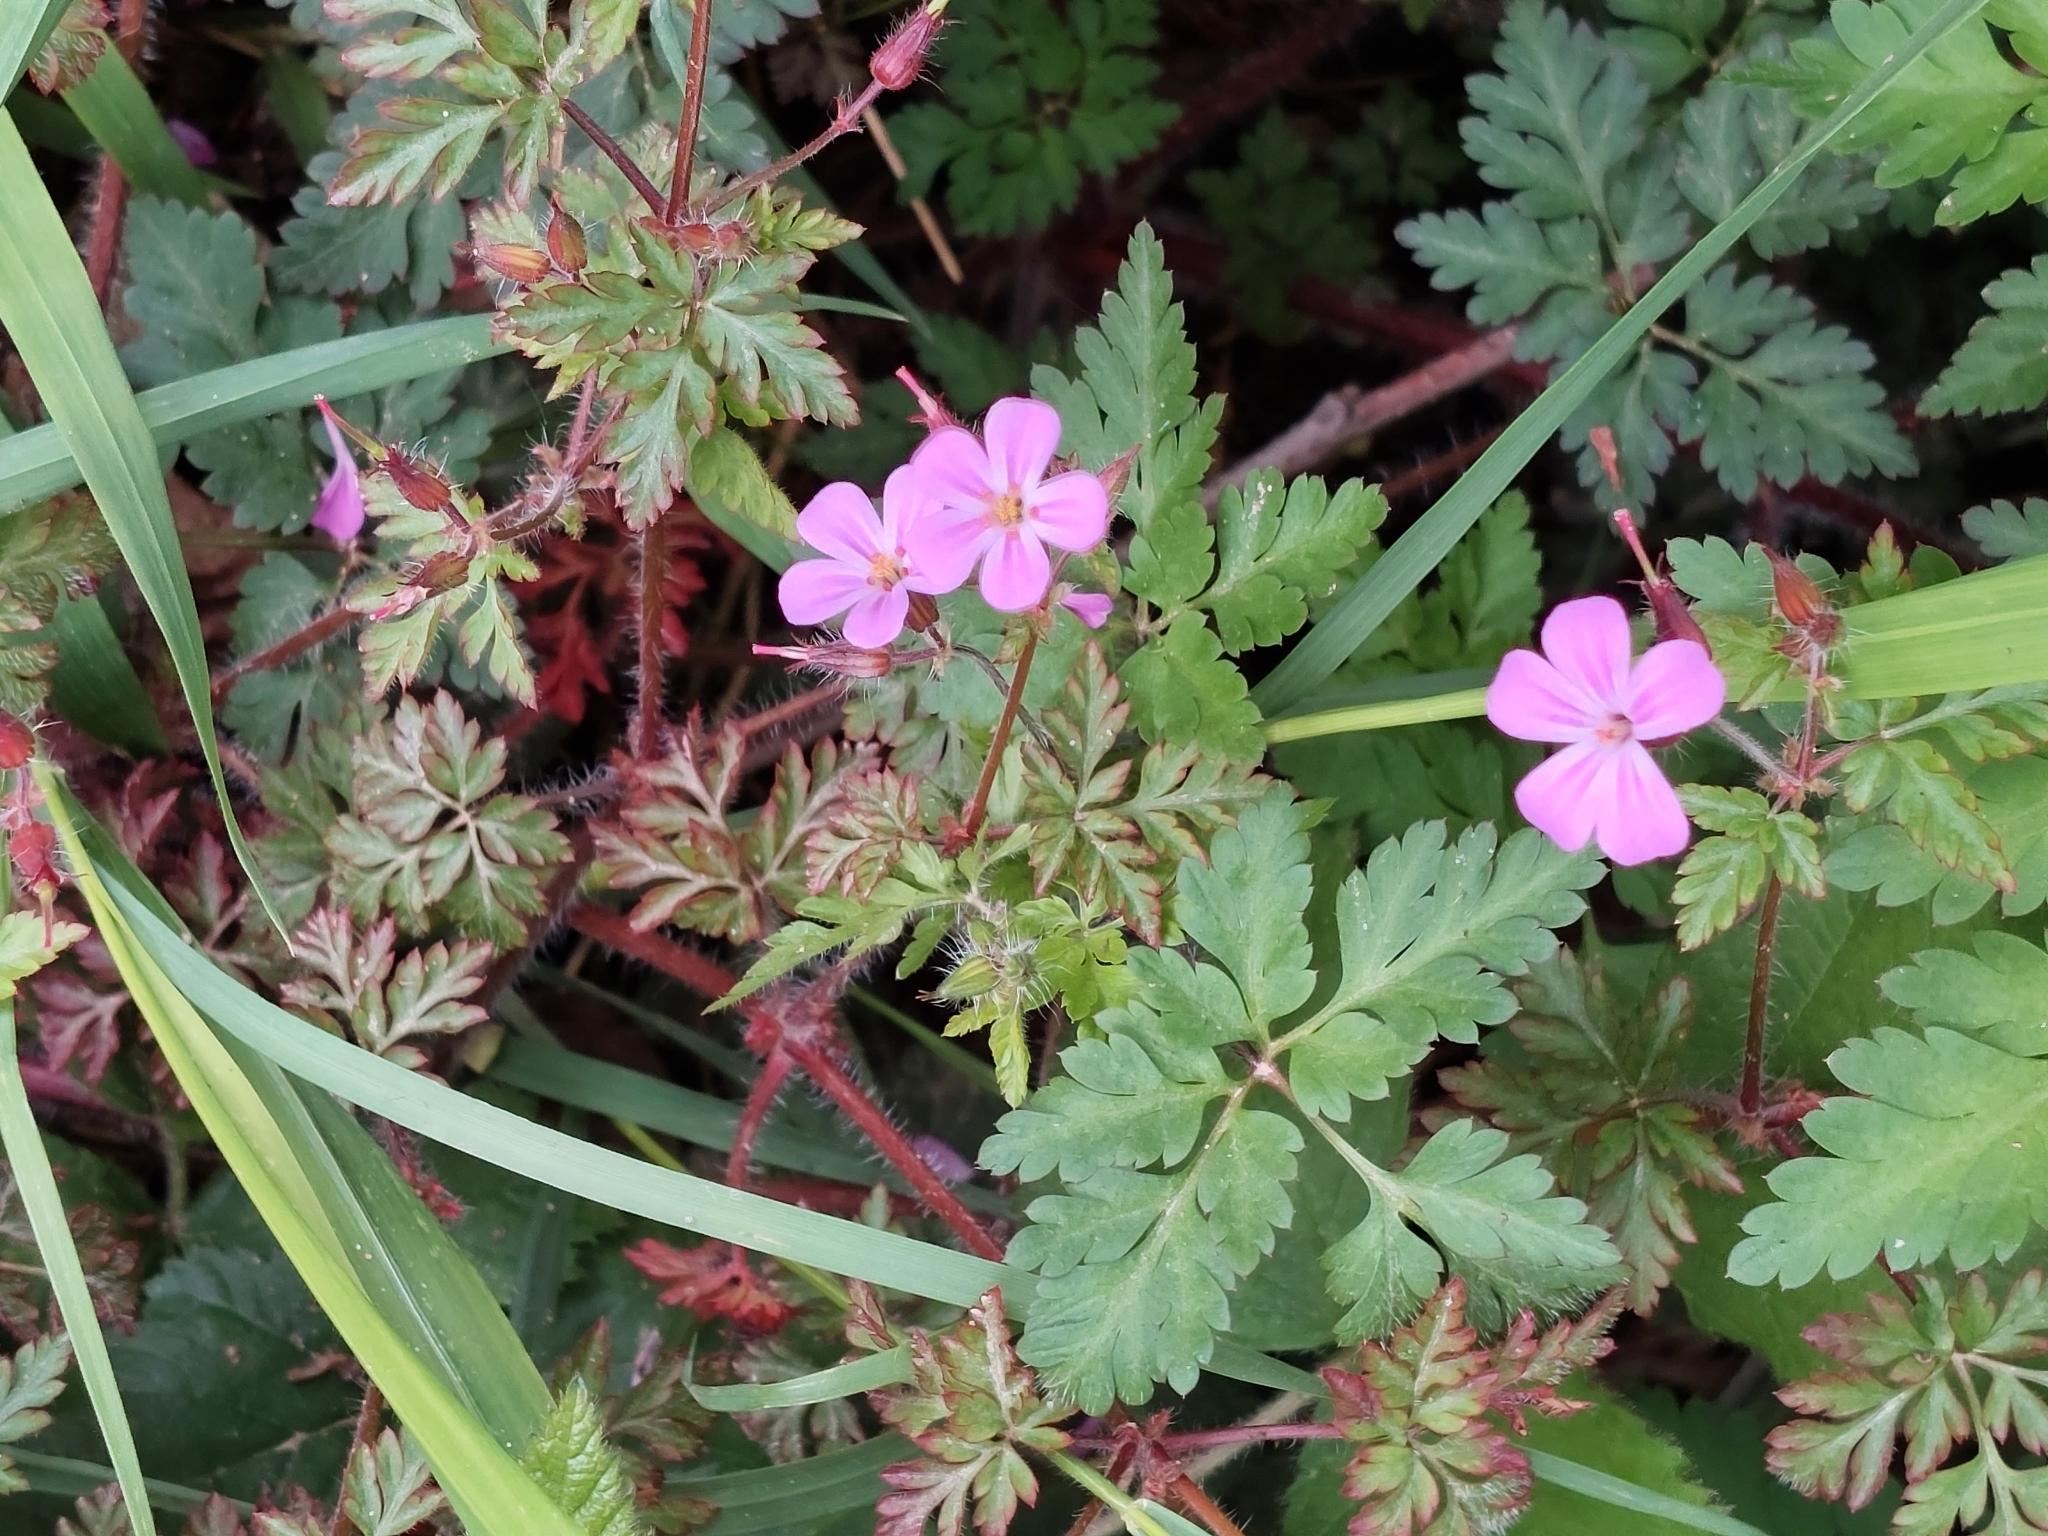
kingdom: Plantae
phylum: Tracheophyta
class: Magnoliopsida
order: Geraniales
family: Geraniaceae
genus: Geranium
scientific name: Geranium robertianum
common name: Herb-robert
